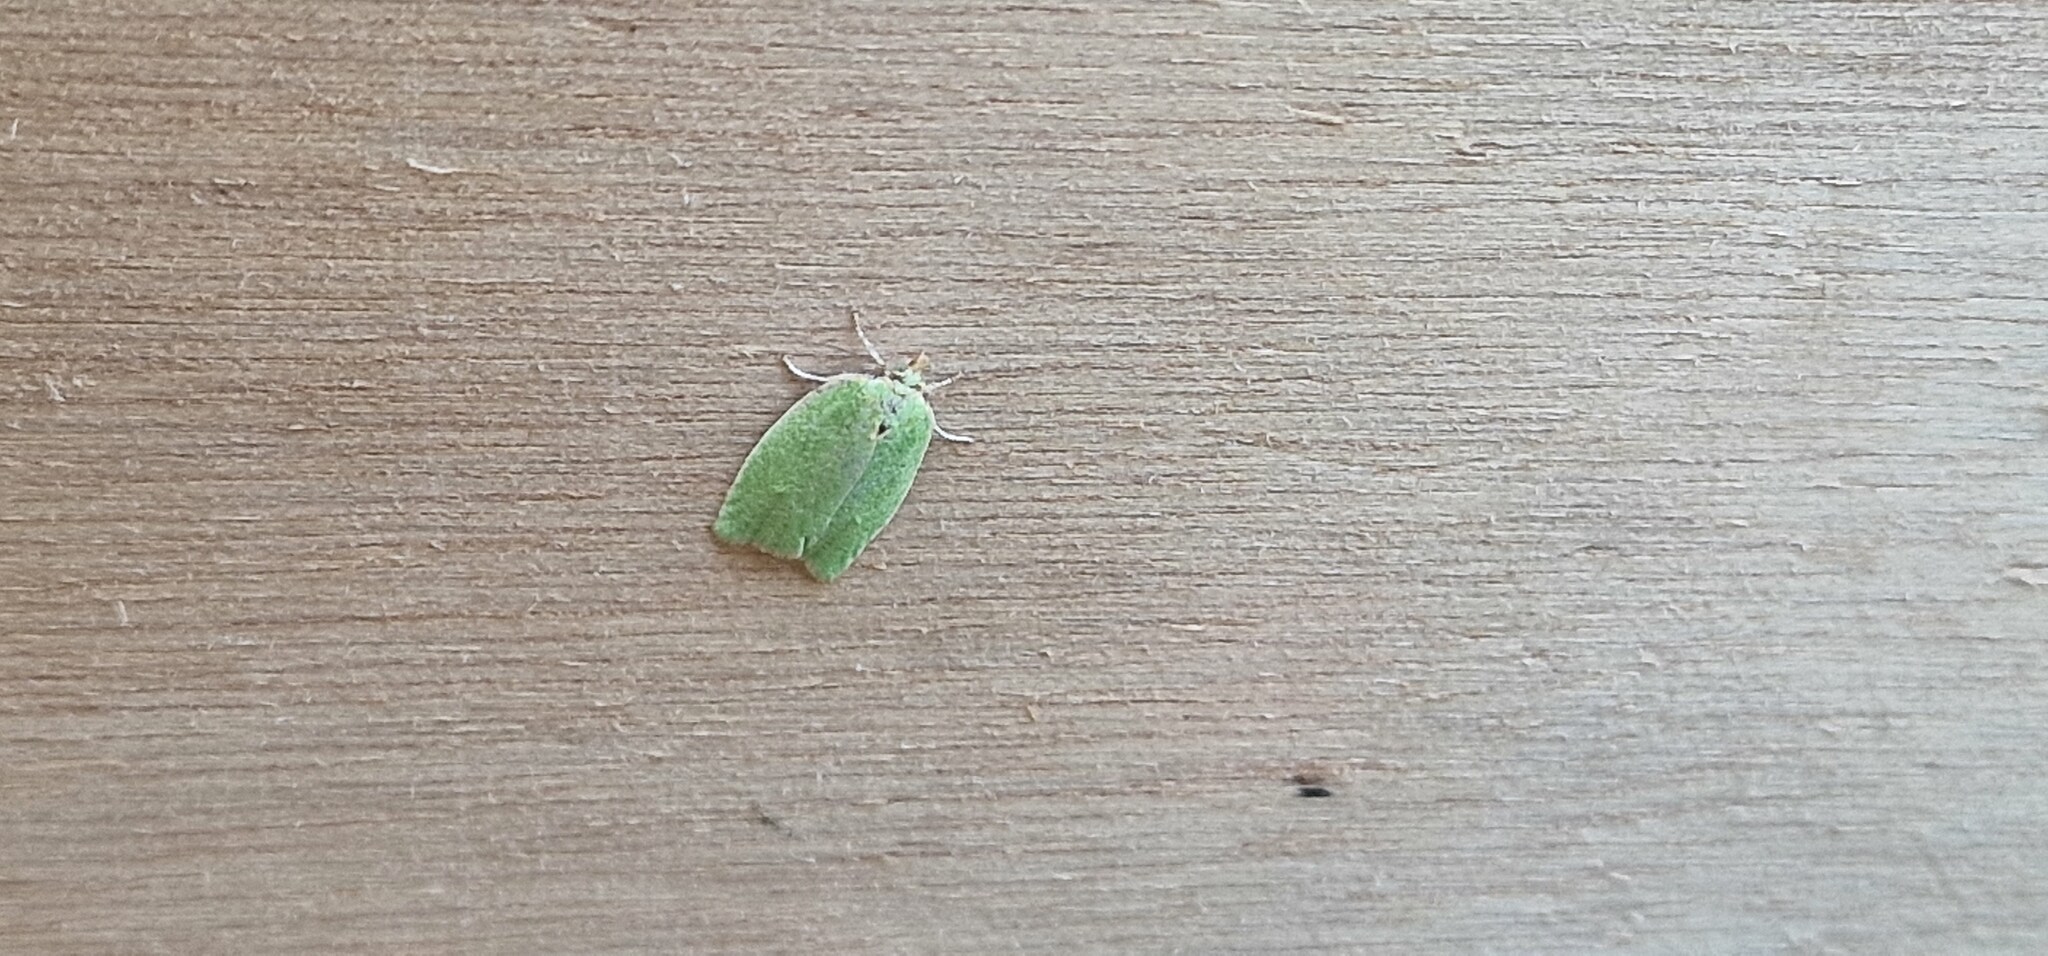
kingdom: Animalia
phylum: Arthropoda
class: Insecta
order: Lepidoptera
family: Tortricidae
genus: Tortrix
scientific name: Tortrix viridana
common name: Green oak tortrix
